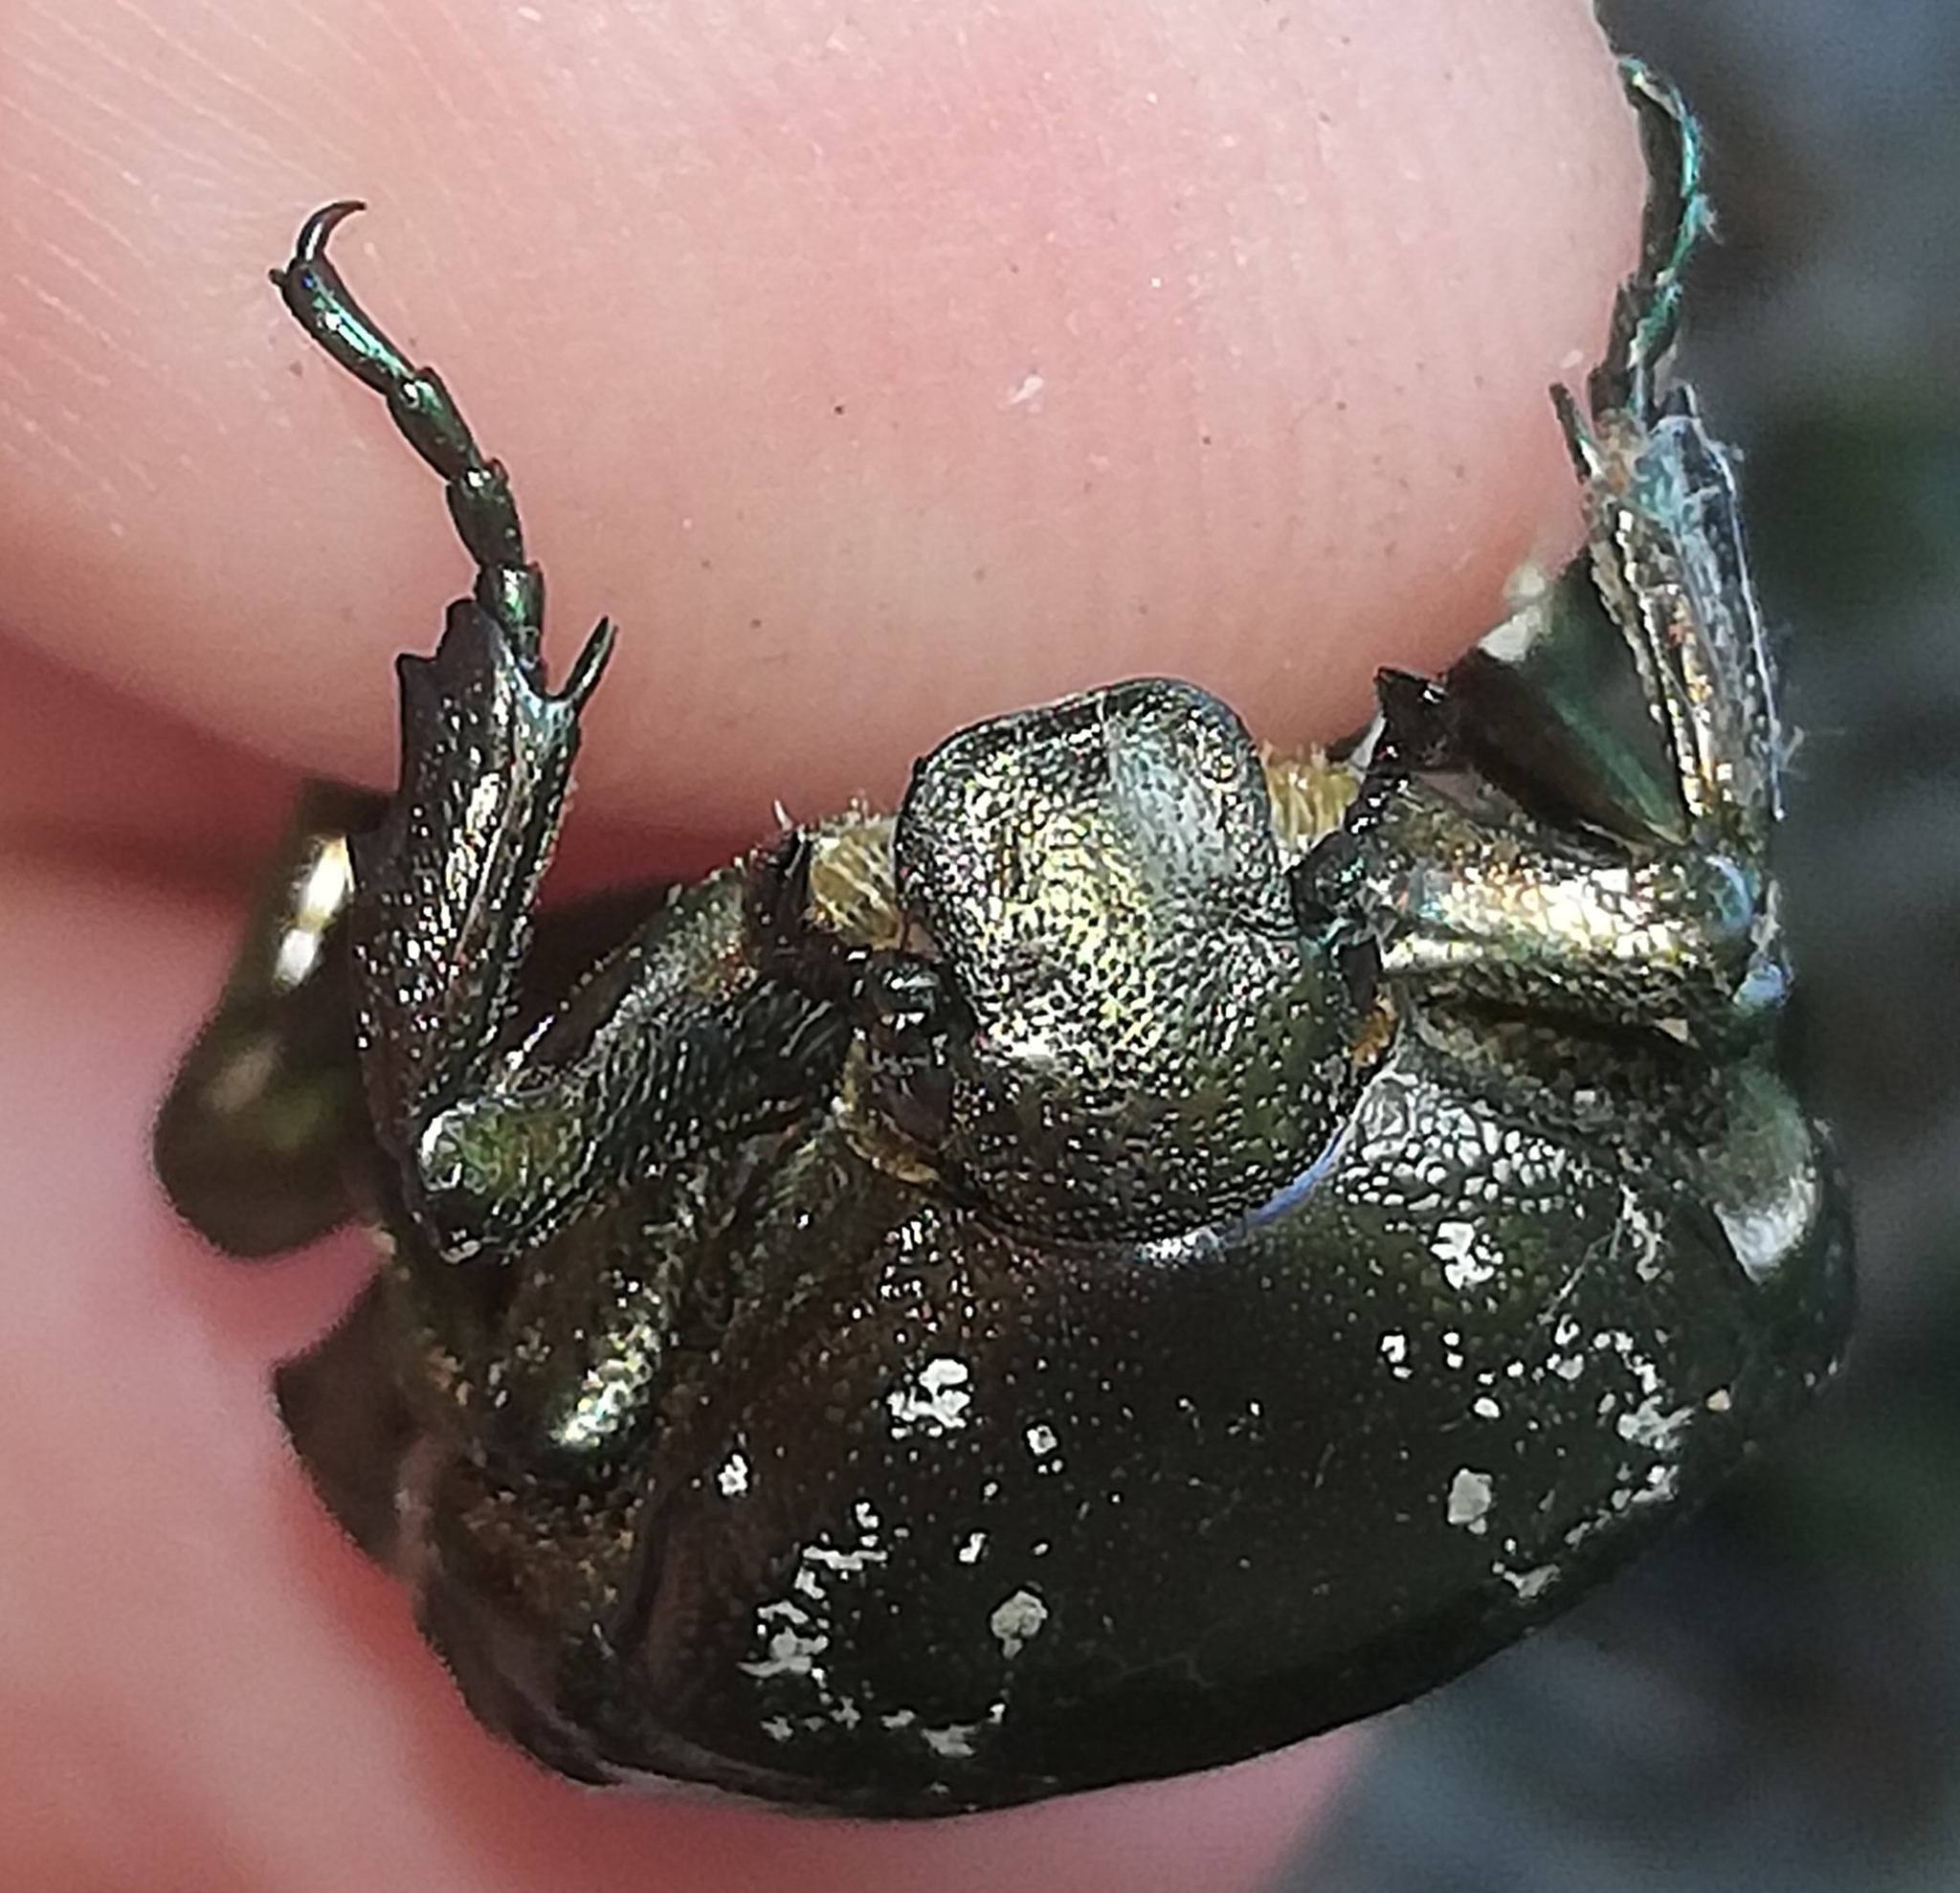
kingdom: Animalia
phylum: Arthropoda
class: Insecta
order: Coleoptera
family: Scarabaeidae
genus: Protaetia
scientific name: Protaetia marmorata
